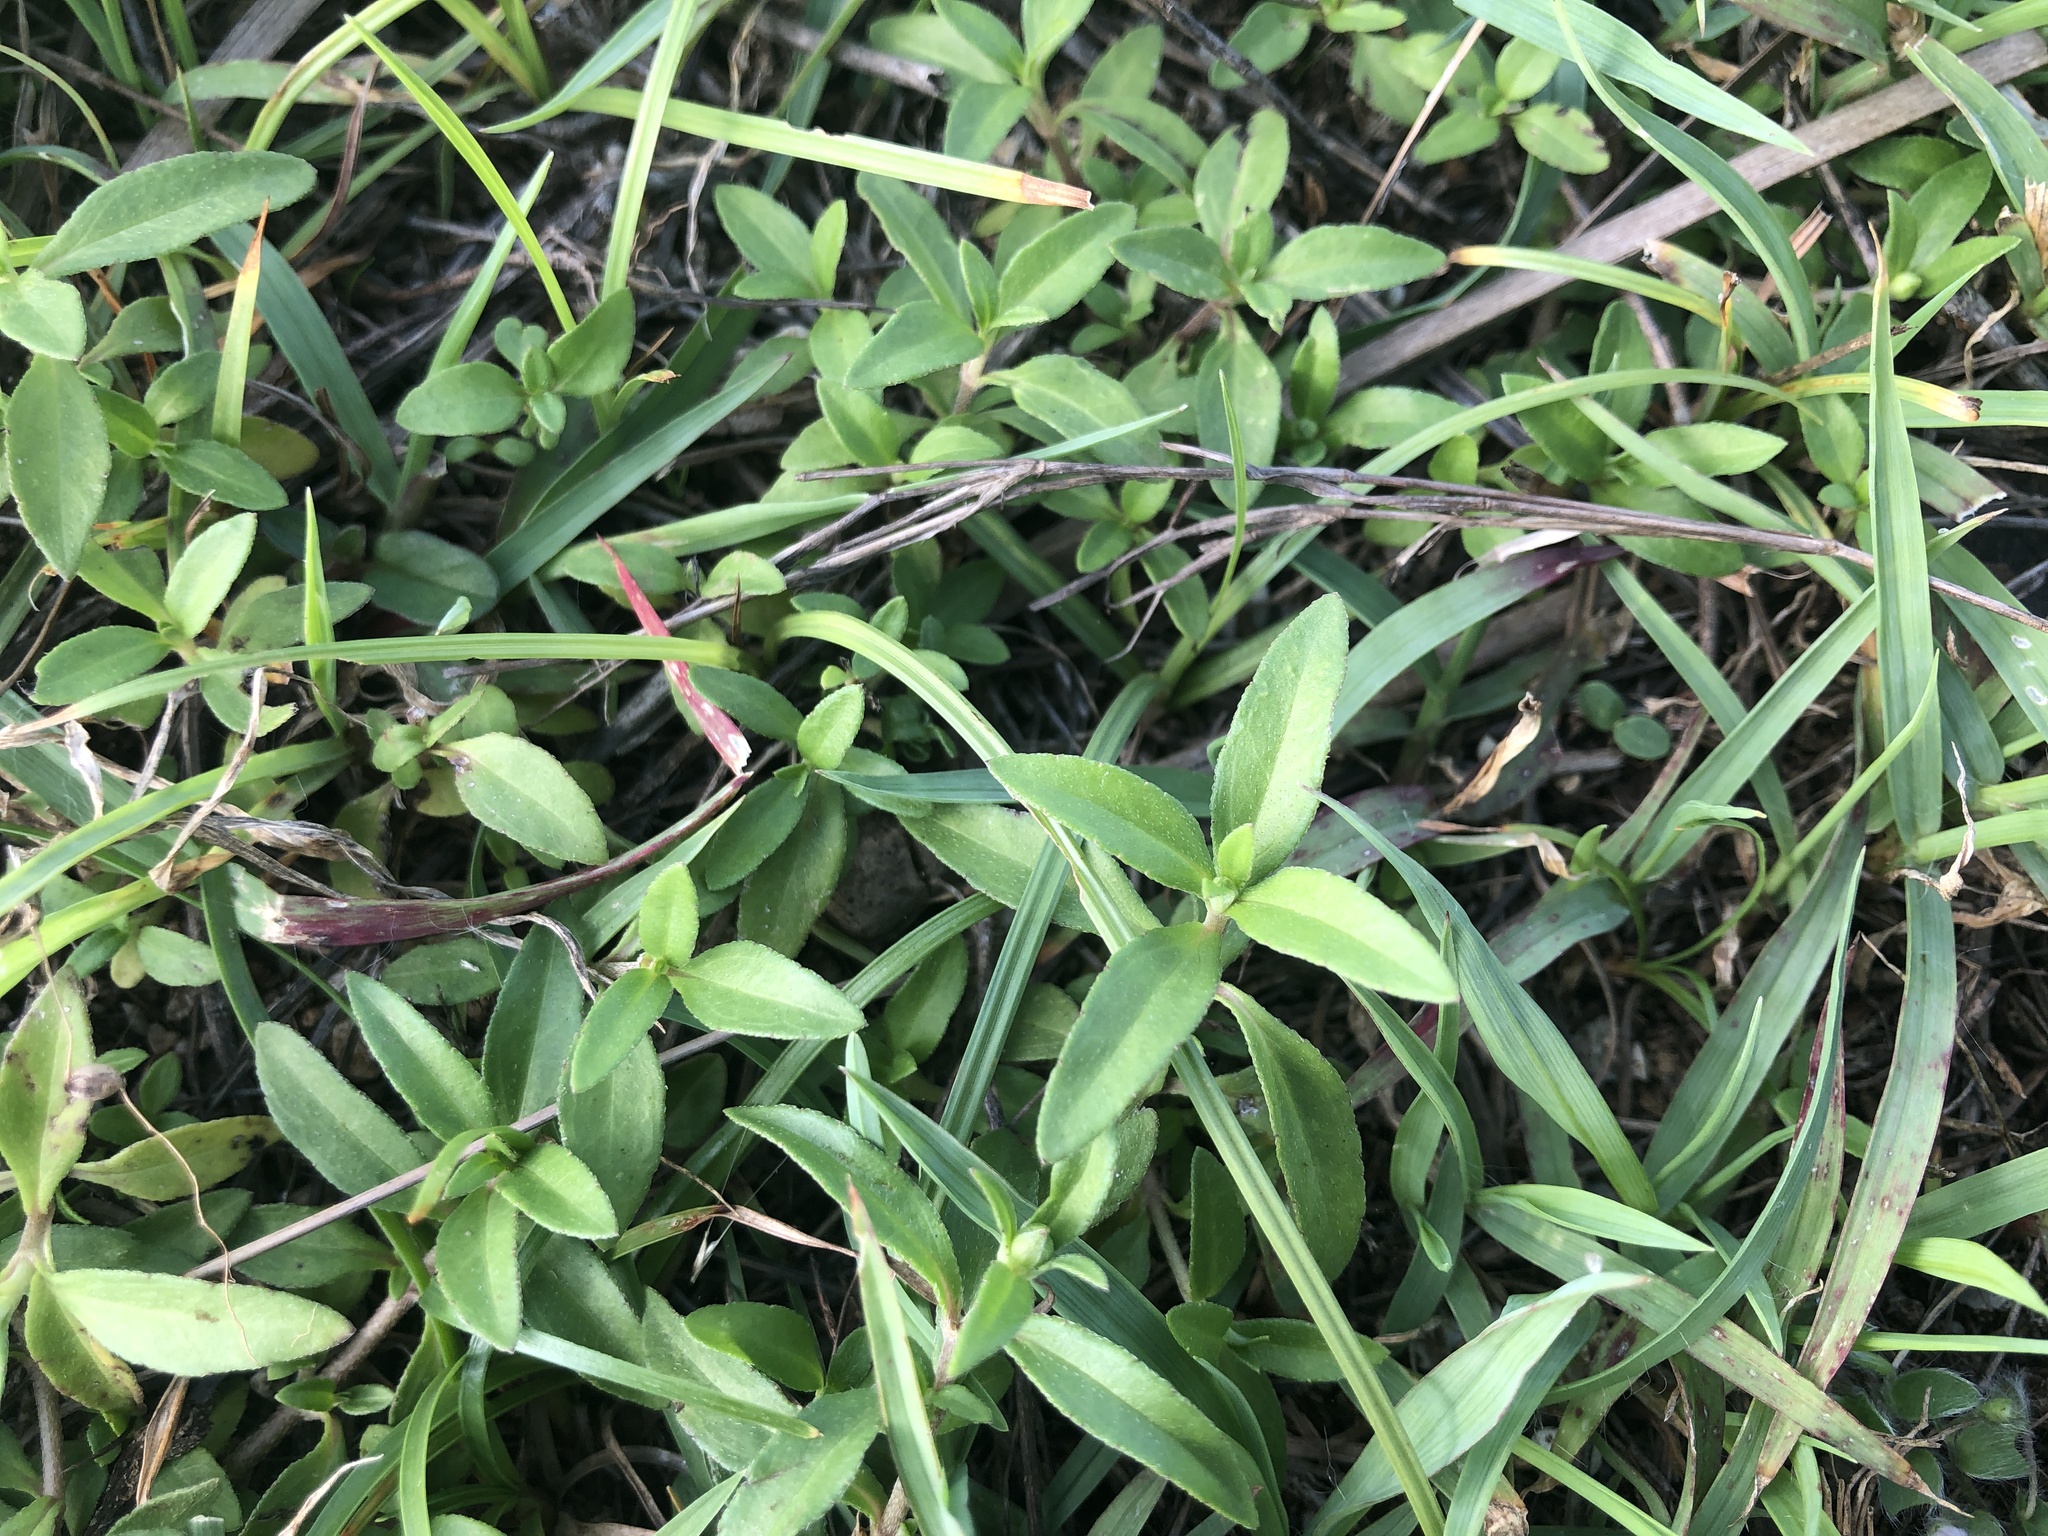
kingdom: Plantae
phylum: Tracheophyta
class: Magnoliopsida
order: Asterales
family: Asteraceae
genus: Eclipta
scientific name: Eclipta prostrata
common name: False daisy
